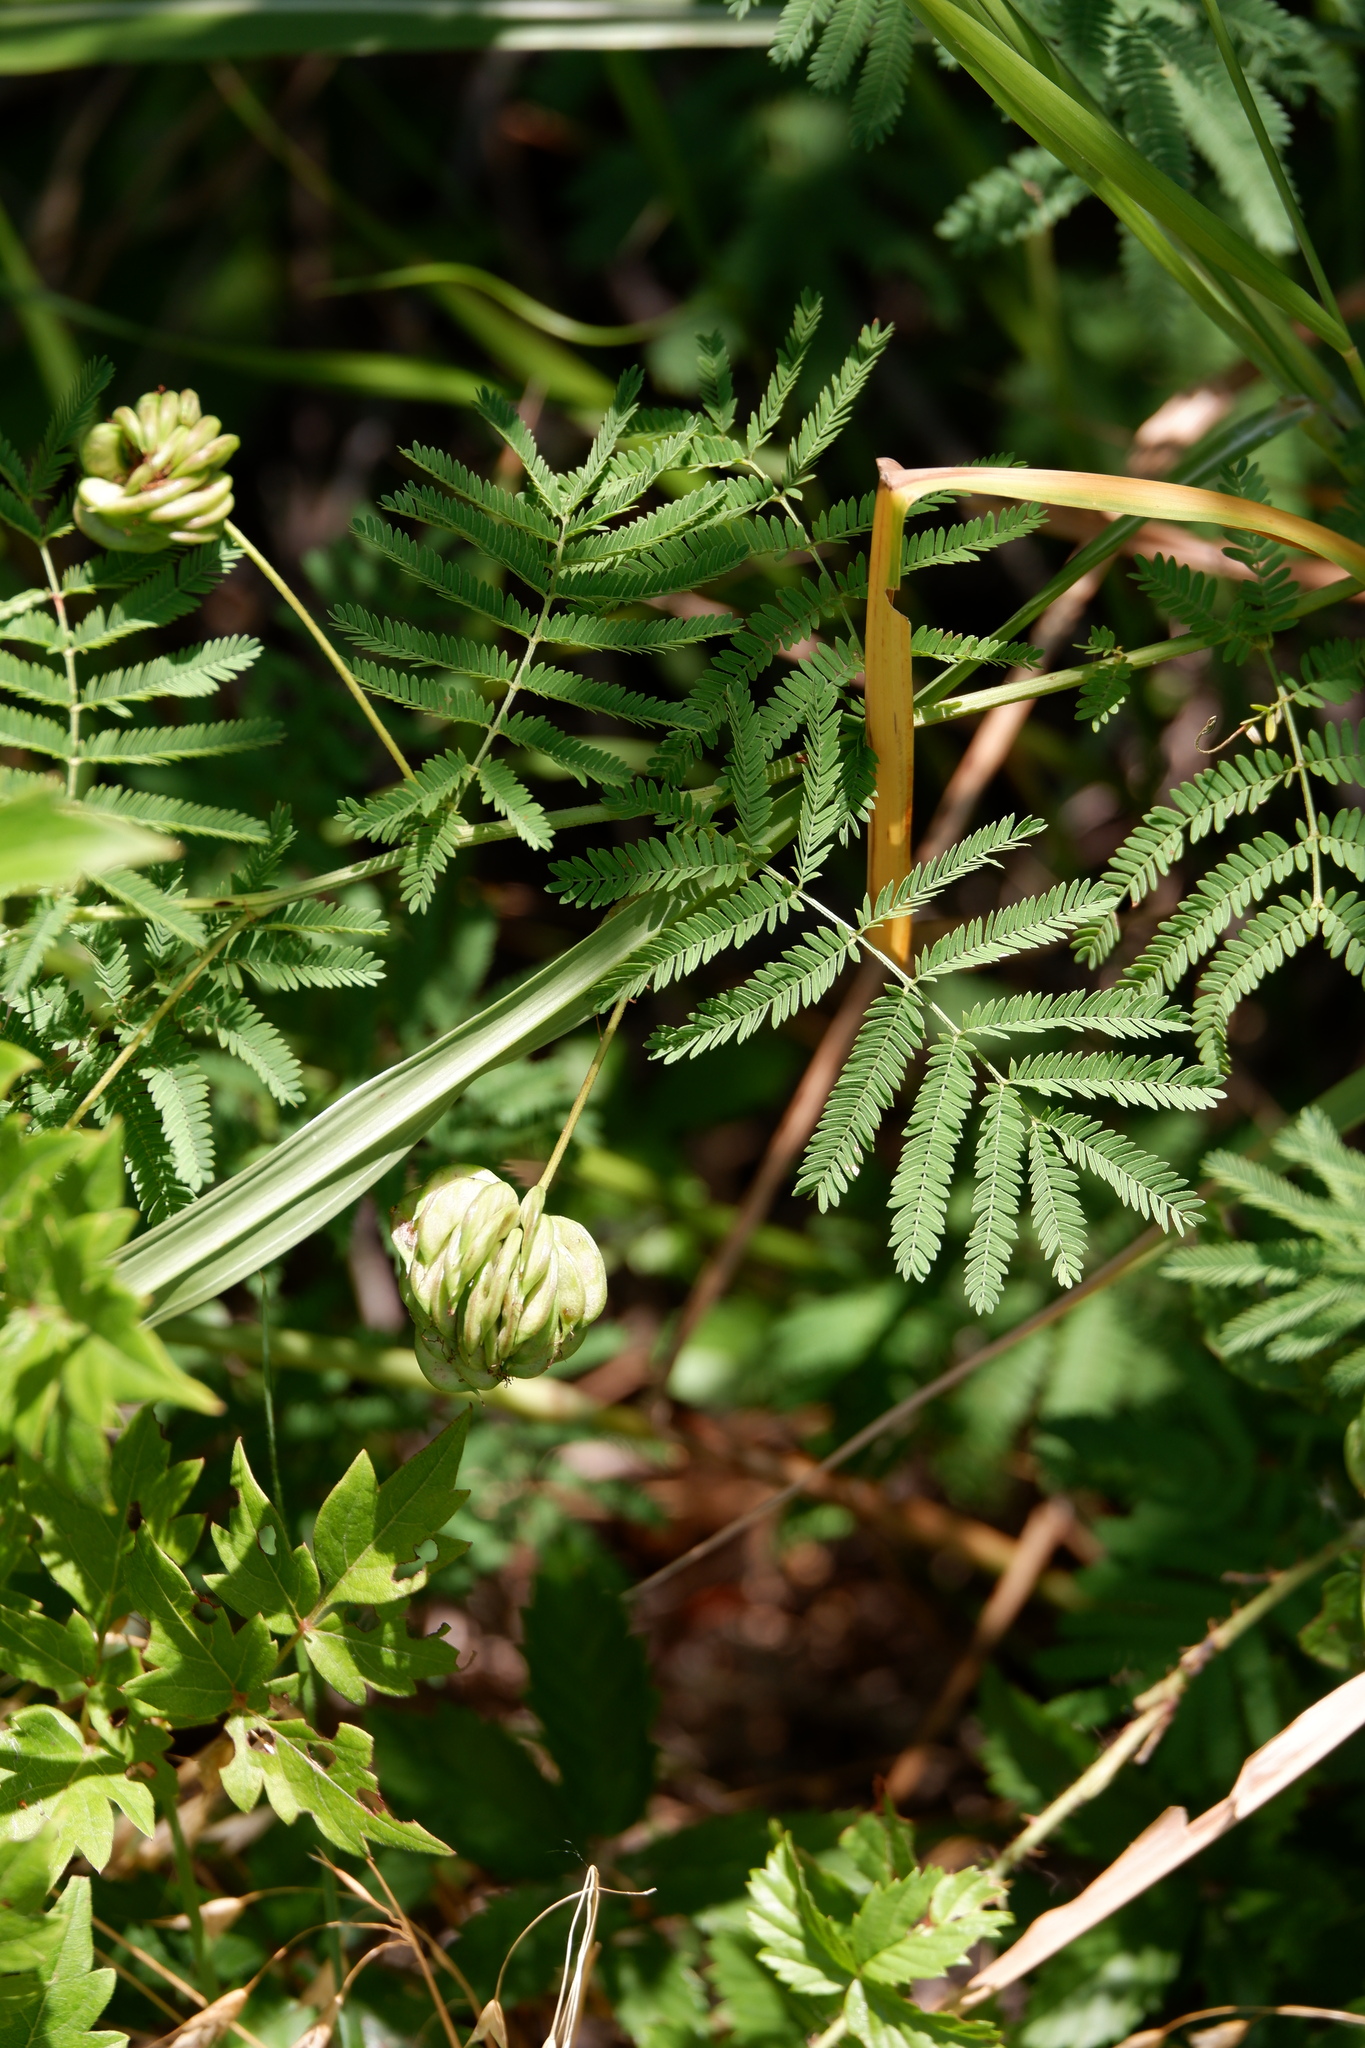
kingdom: Plantae
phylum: Tracheophyta
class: Magnoliopsida
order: Fabales
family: Fabaceae
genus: Desmanthus
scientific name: Desmanthus illinoensis
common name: Illinois bundle-flower
